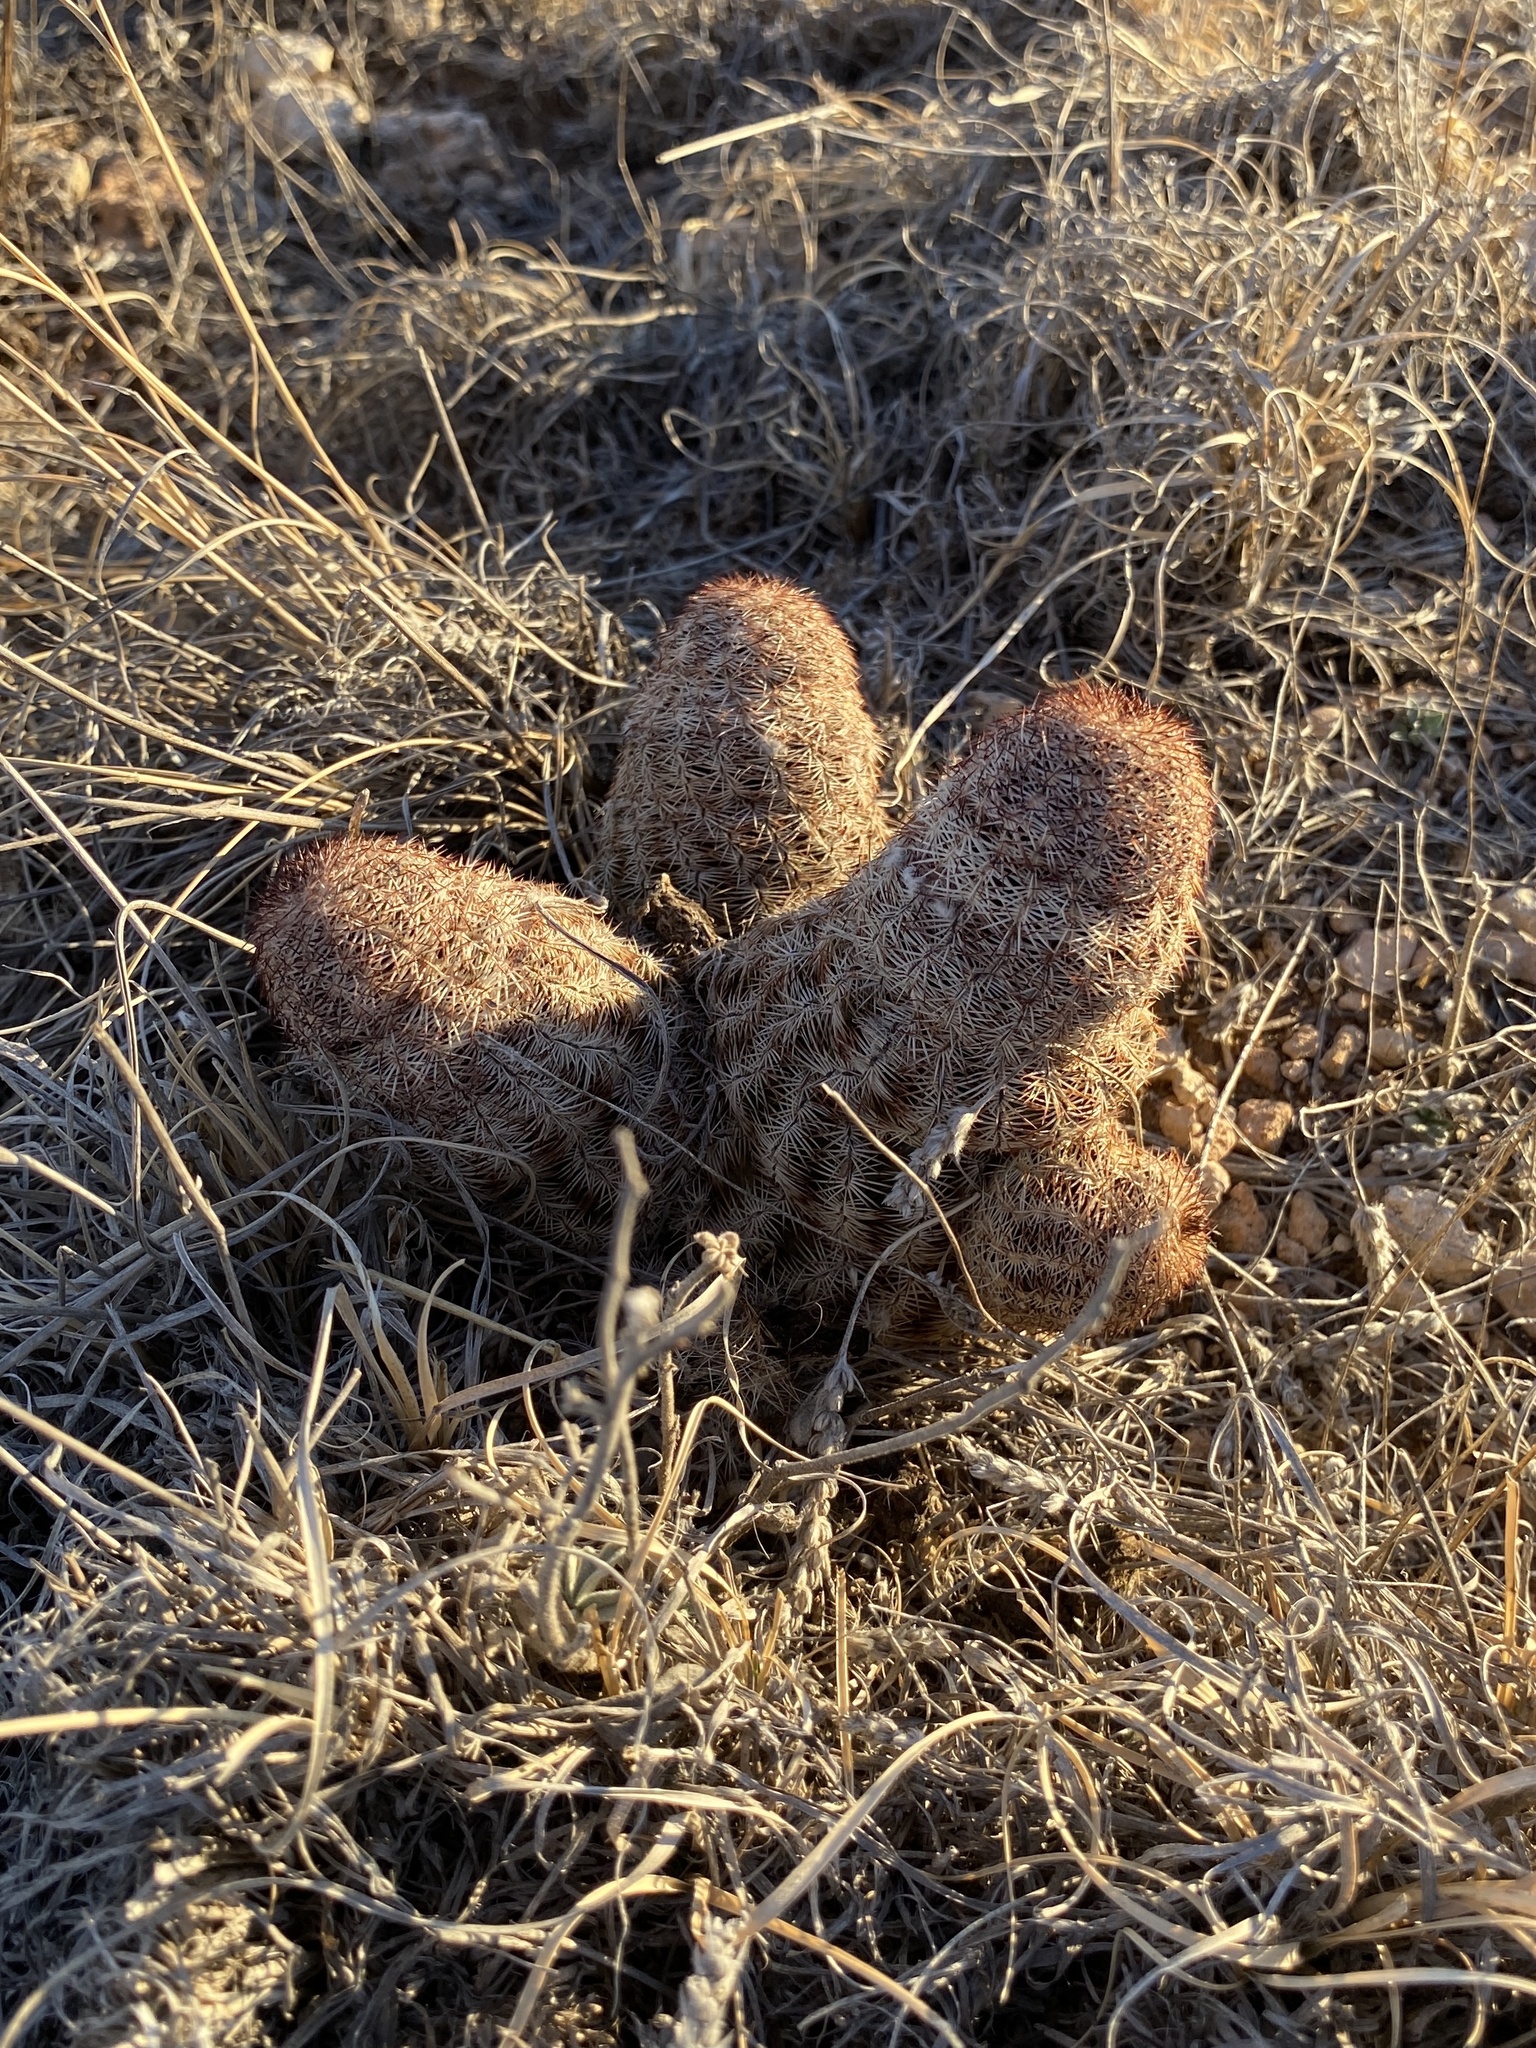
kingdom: Plantae
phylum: Tracheophyta
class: Magnoliopsida
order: Caryophyllales
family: Cactaceae
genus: Echinocereus
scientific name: Echinocereus reichenbachii
